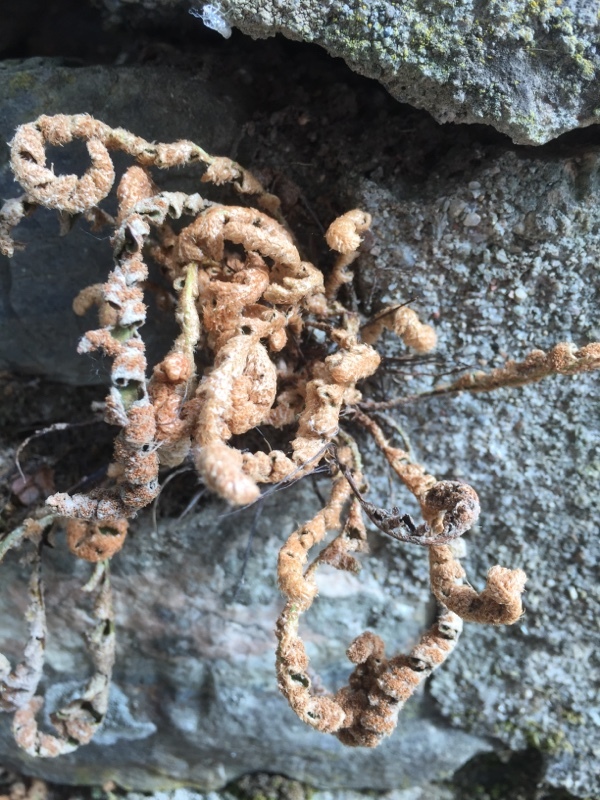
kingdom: Plantae
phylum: Tracheophyta
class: Polypodiopsida
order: Polypodiales
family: Aspleniaceae
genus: Asplenium
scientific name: Asplenium ceterach
